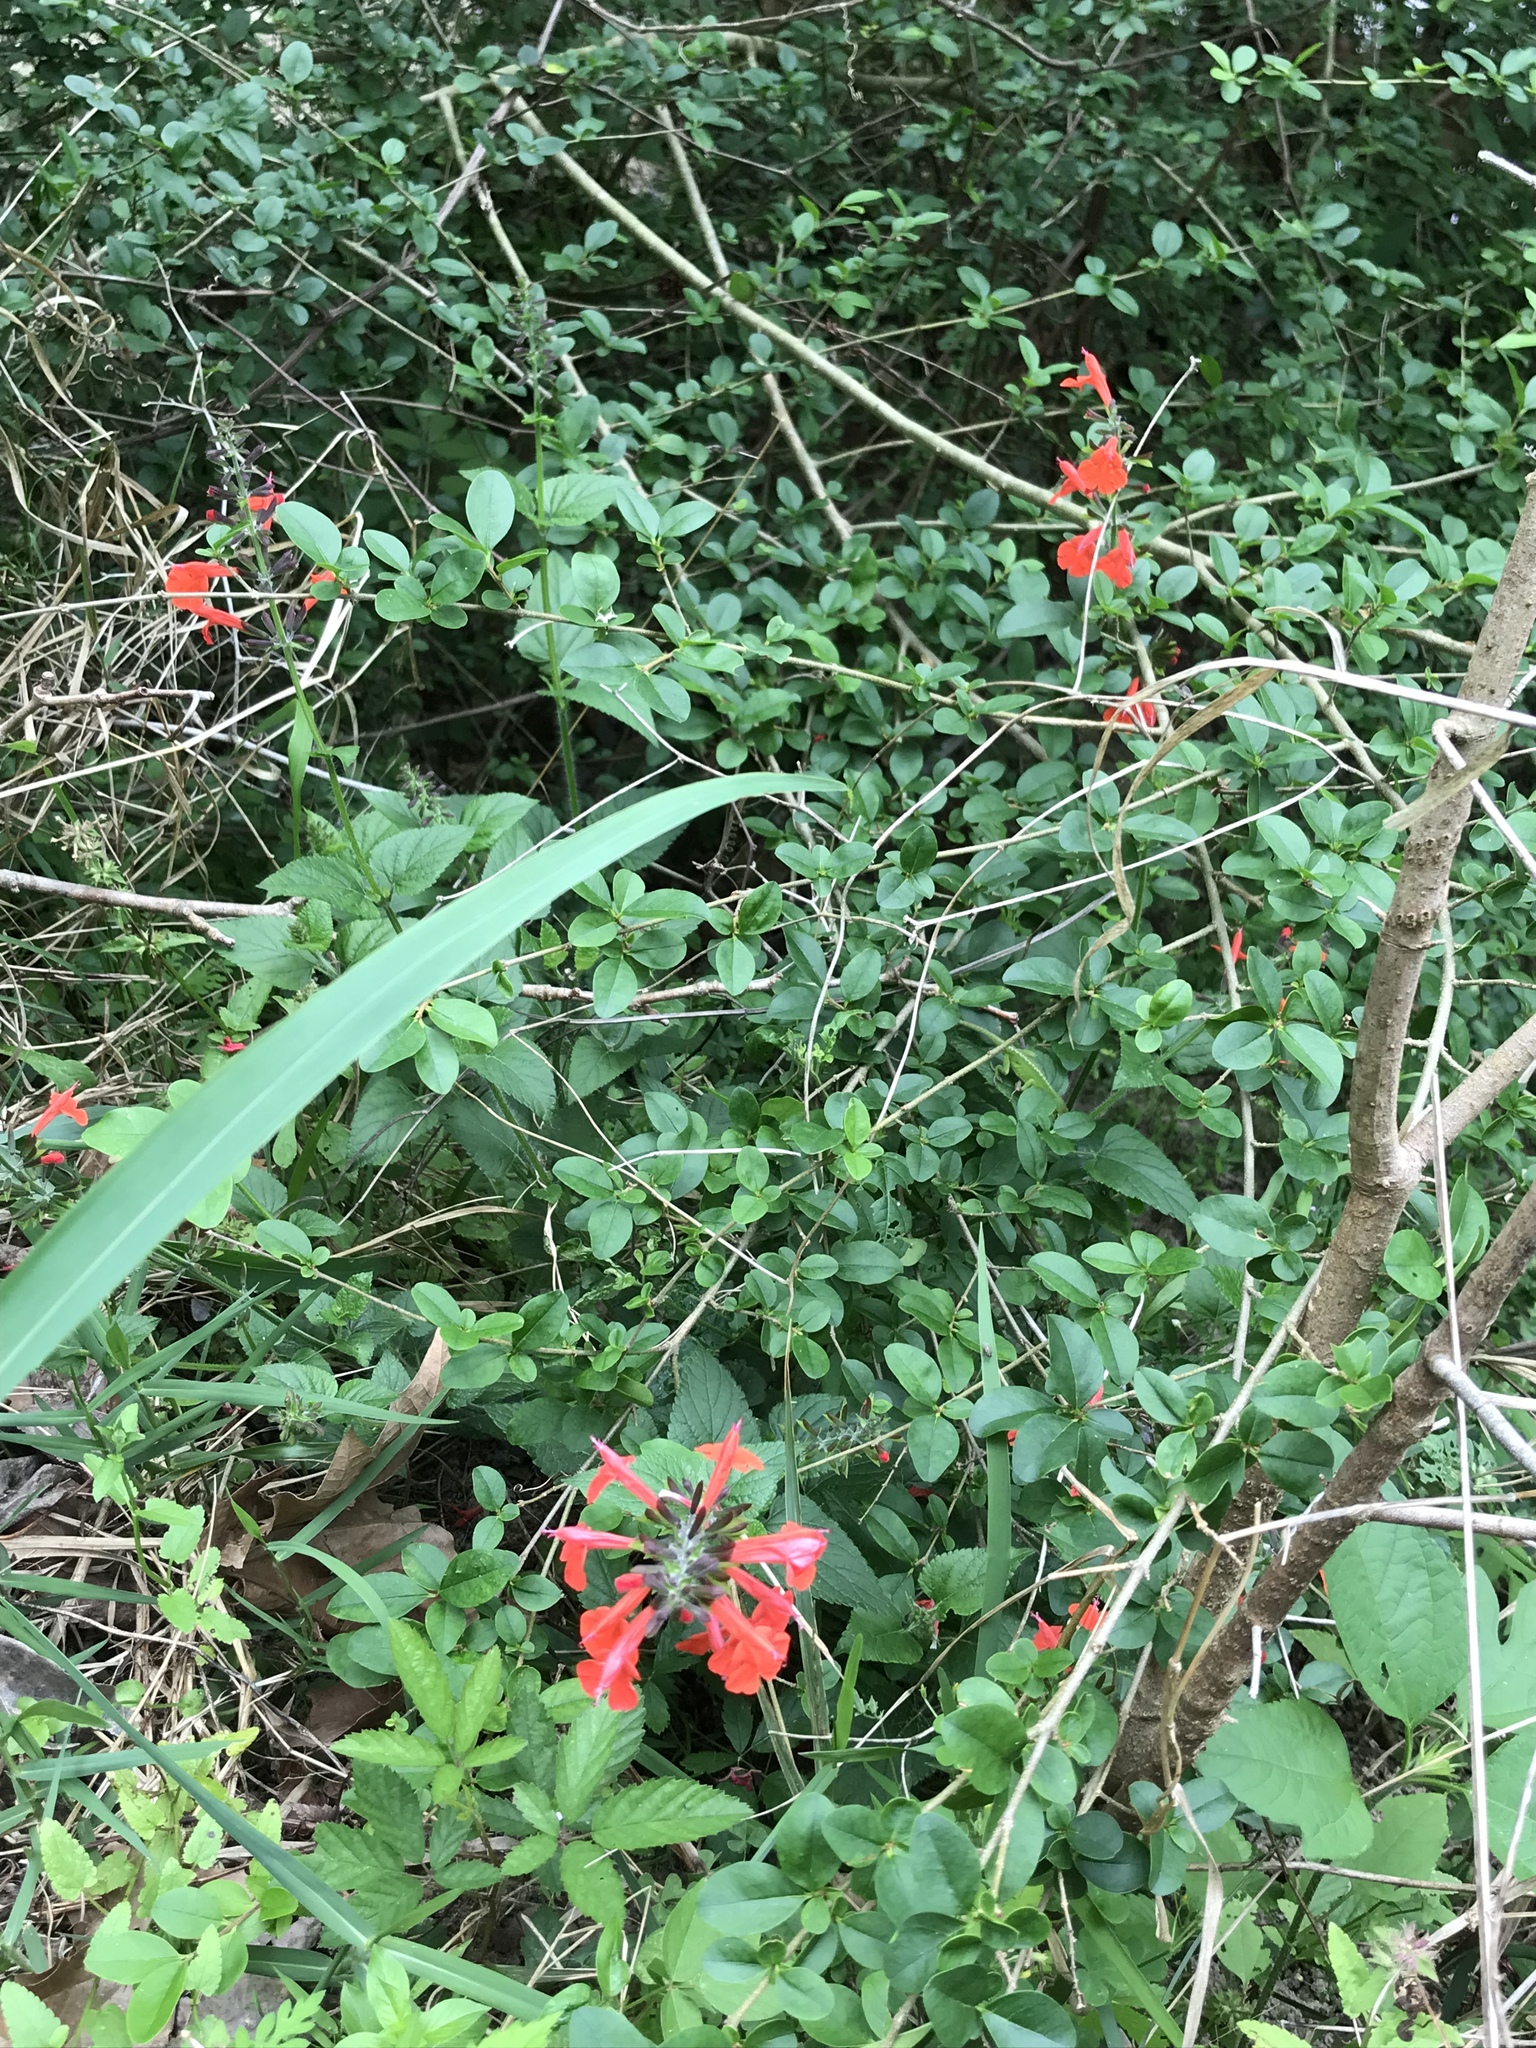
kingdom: Plantae
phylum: Tracheophyta
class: Magnoliopsida
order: Lamiales
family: Lamiaceae
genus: Salvia
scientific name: Salvia coccinea
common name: Blood sage
